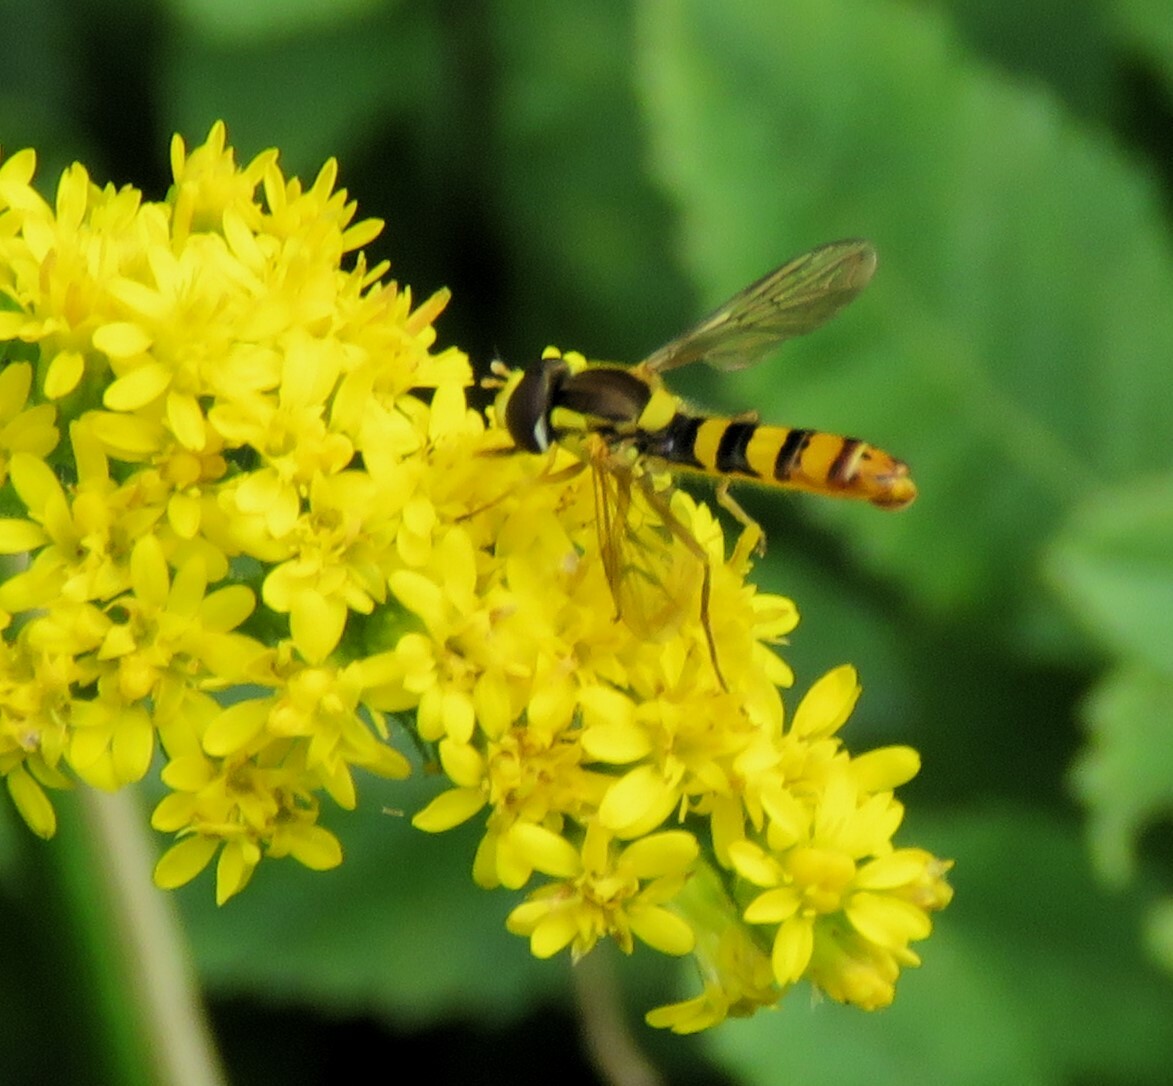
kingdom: Animalia
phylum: Arthropoda
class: Insecta
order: Diptera
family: Syrphidae
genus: Sphaerophoria
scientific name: Sphaerophoria philantha
